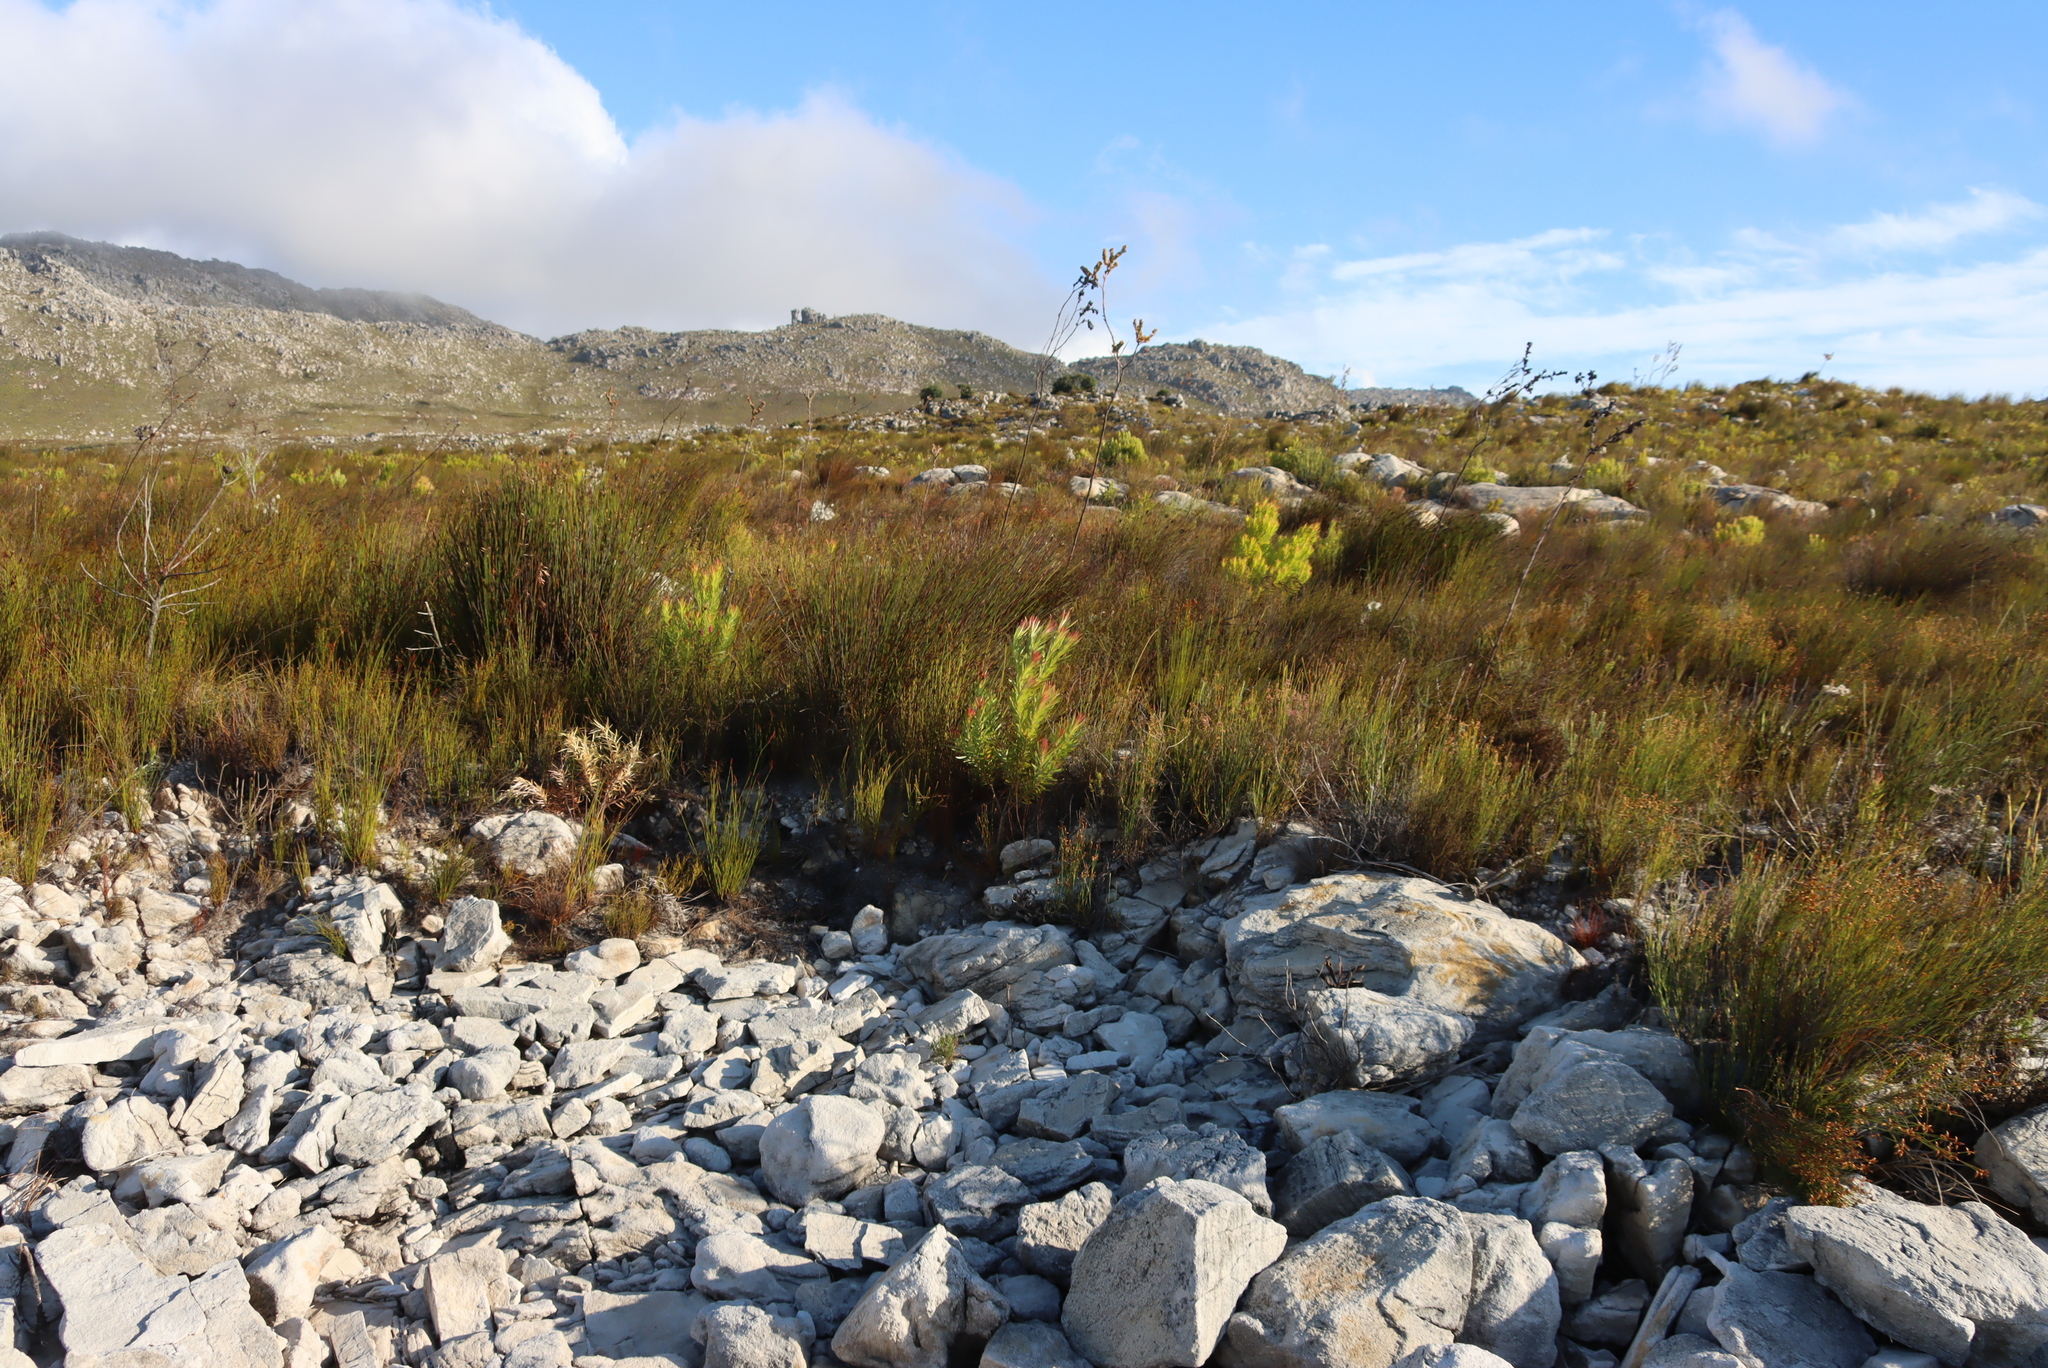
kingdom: Plantae
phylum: Tracheophyta
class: Magnoliopsida
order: Santalales
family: Thesiaceae
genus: Thesium
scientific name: Thesium euphorbioides
